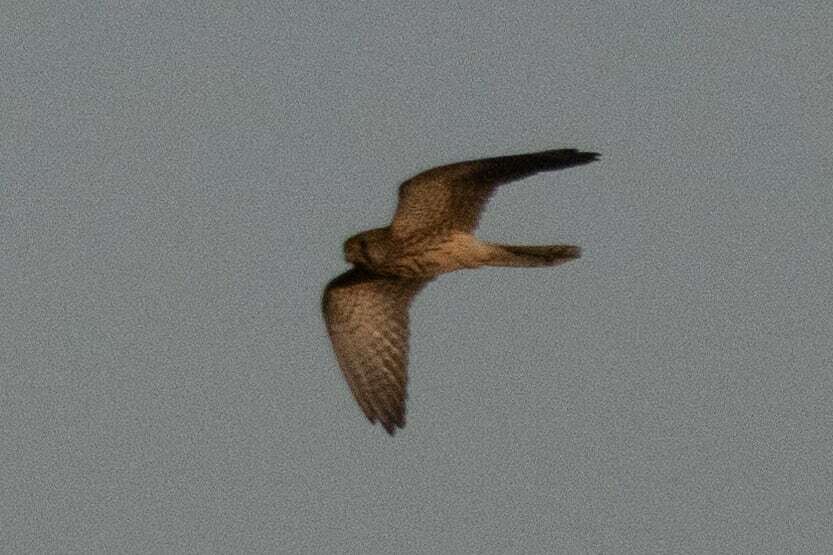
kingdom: Animalia
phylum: Chordata
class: Aves
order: Falconiformes
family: Falconidae
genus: Falco
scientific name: Falco tinnunculus
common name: Common kestrel
